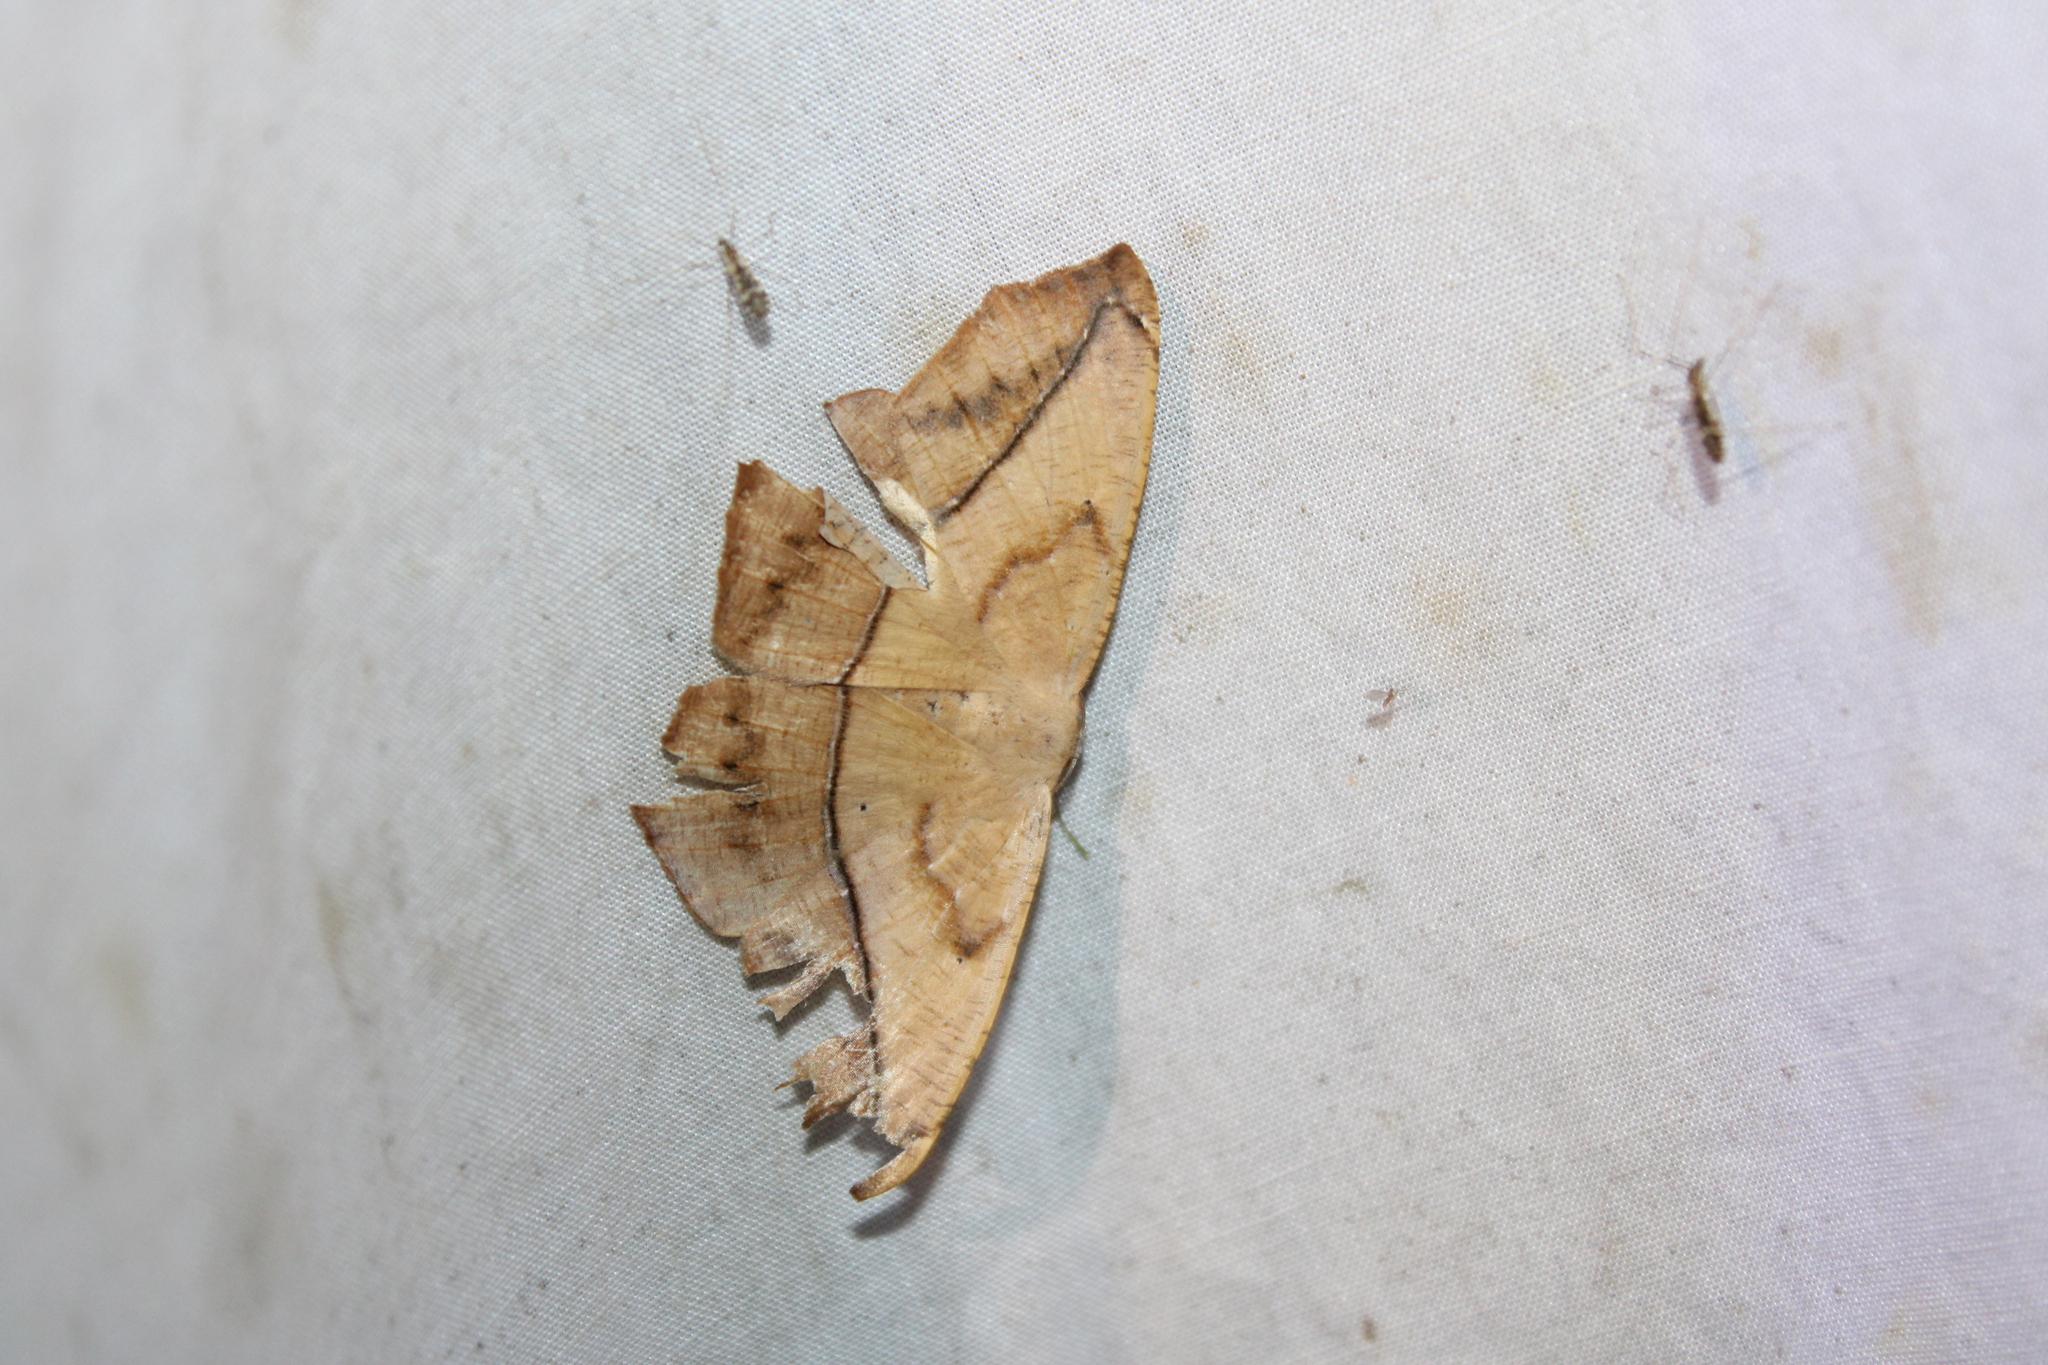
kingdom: Animalia
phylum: Arthropoda
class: Insecta
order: Lepidoptera
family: Geometridae
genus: Prochoerodes
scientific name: Prochoerodes lineola
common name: Large maple spanworm
